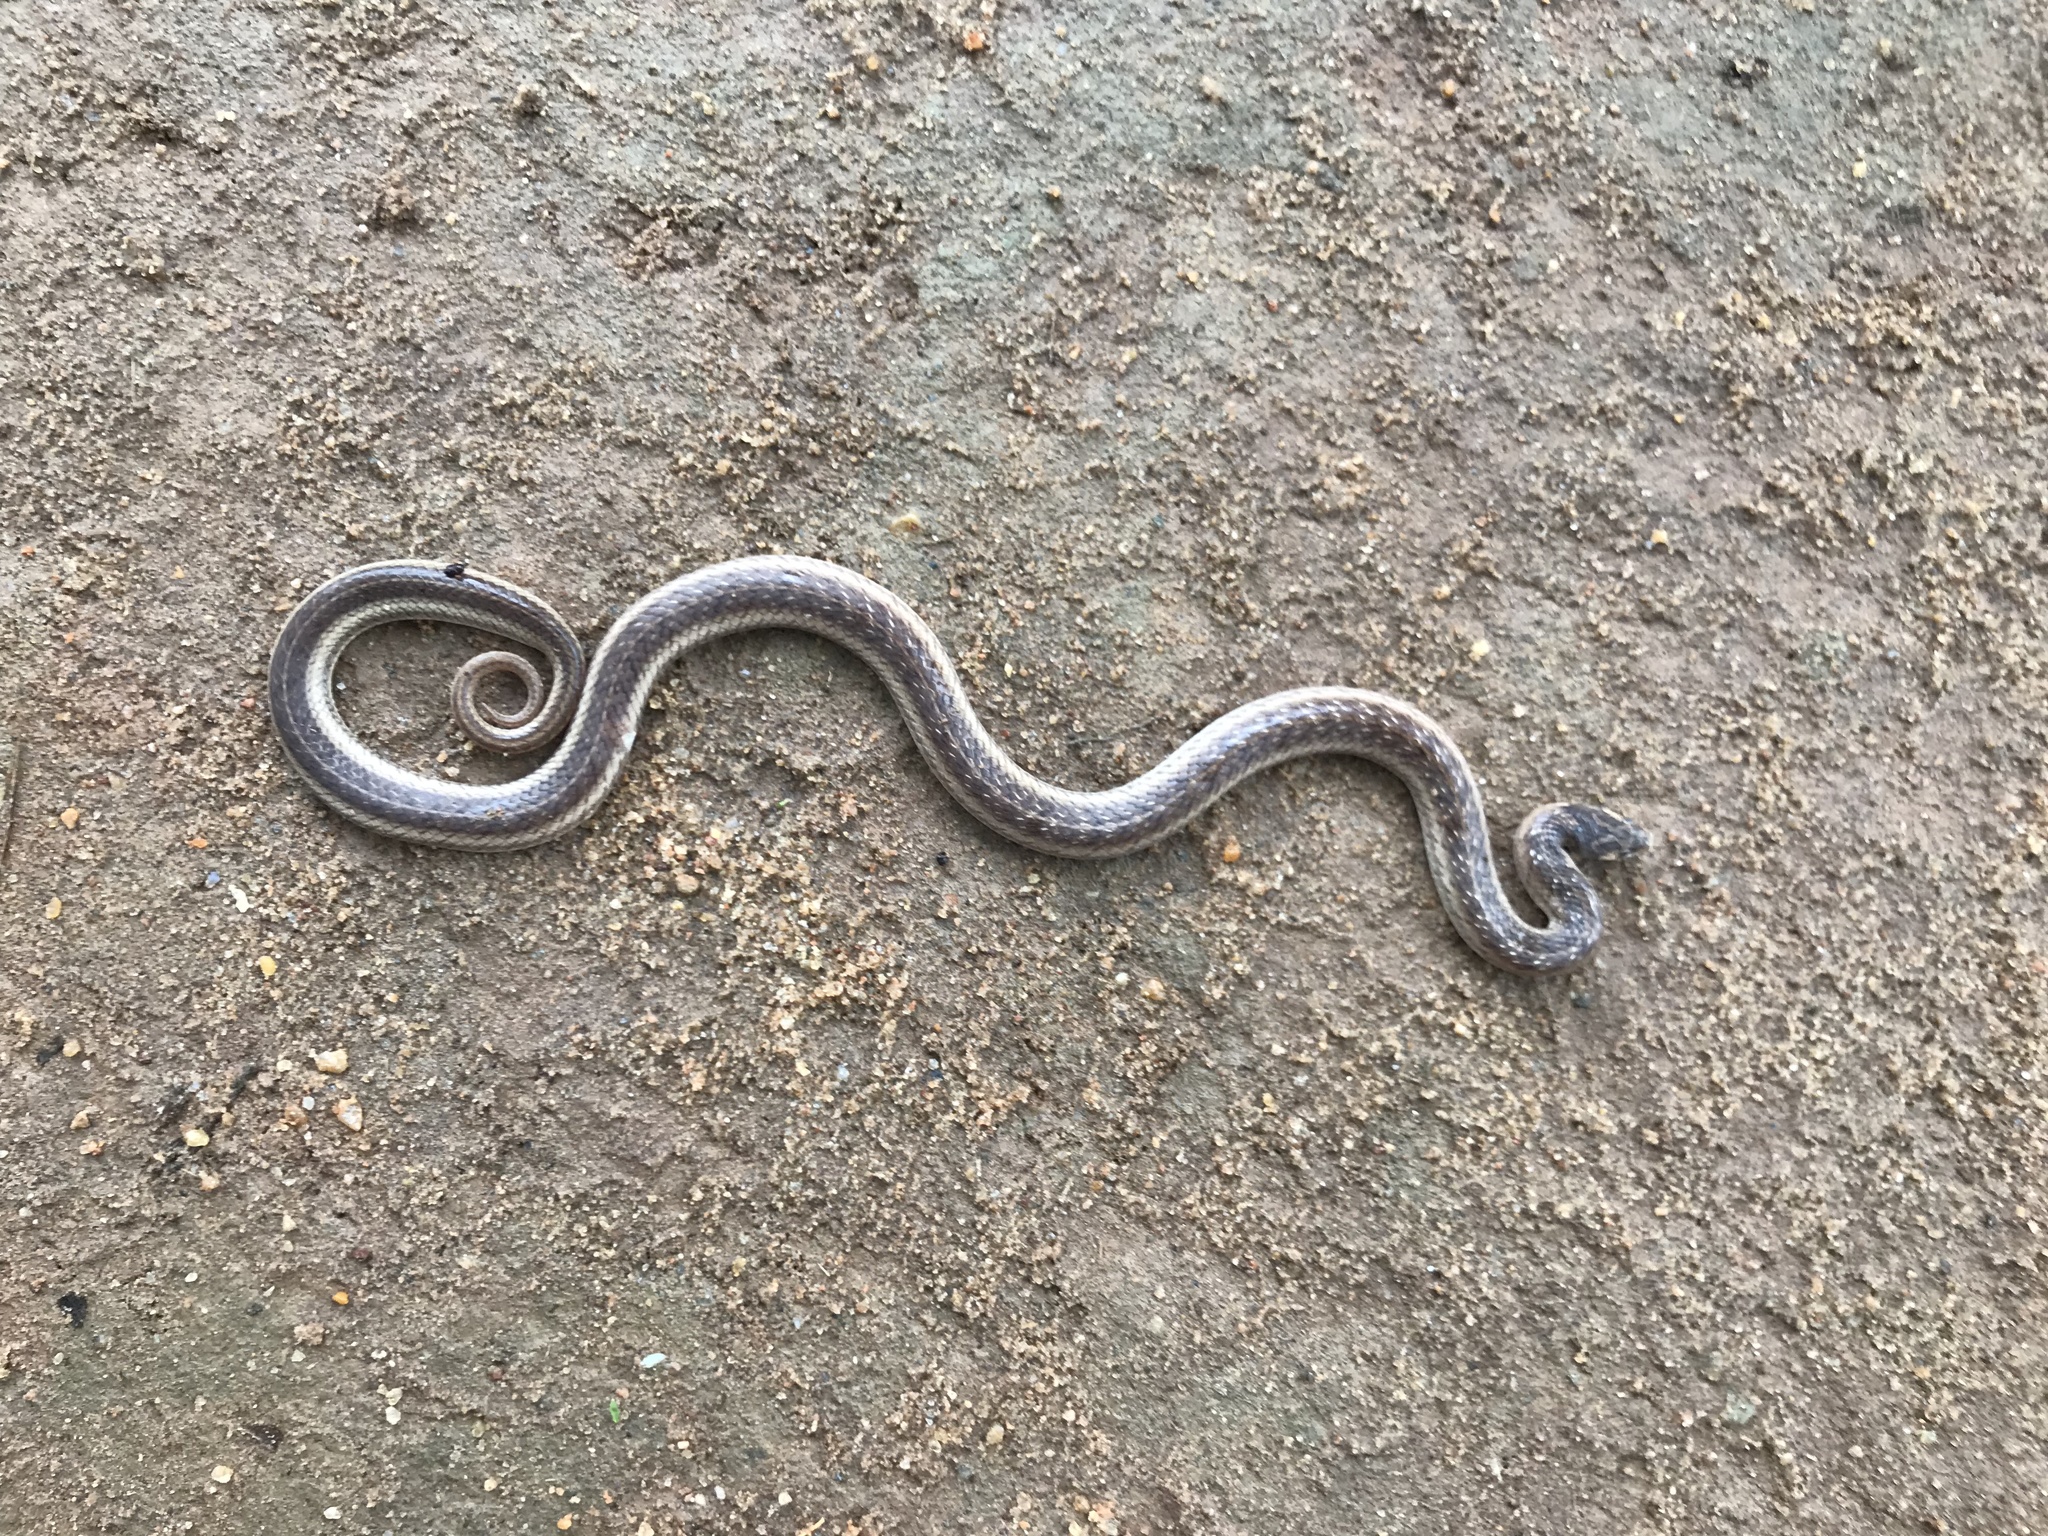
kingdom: Animalia
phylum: Chordata
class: Squamata
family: Colubridae
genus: Oligodon
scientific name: Oligodon taeniolatus
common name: Loos snake
